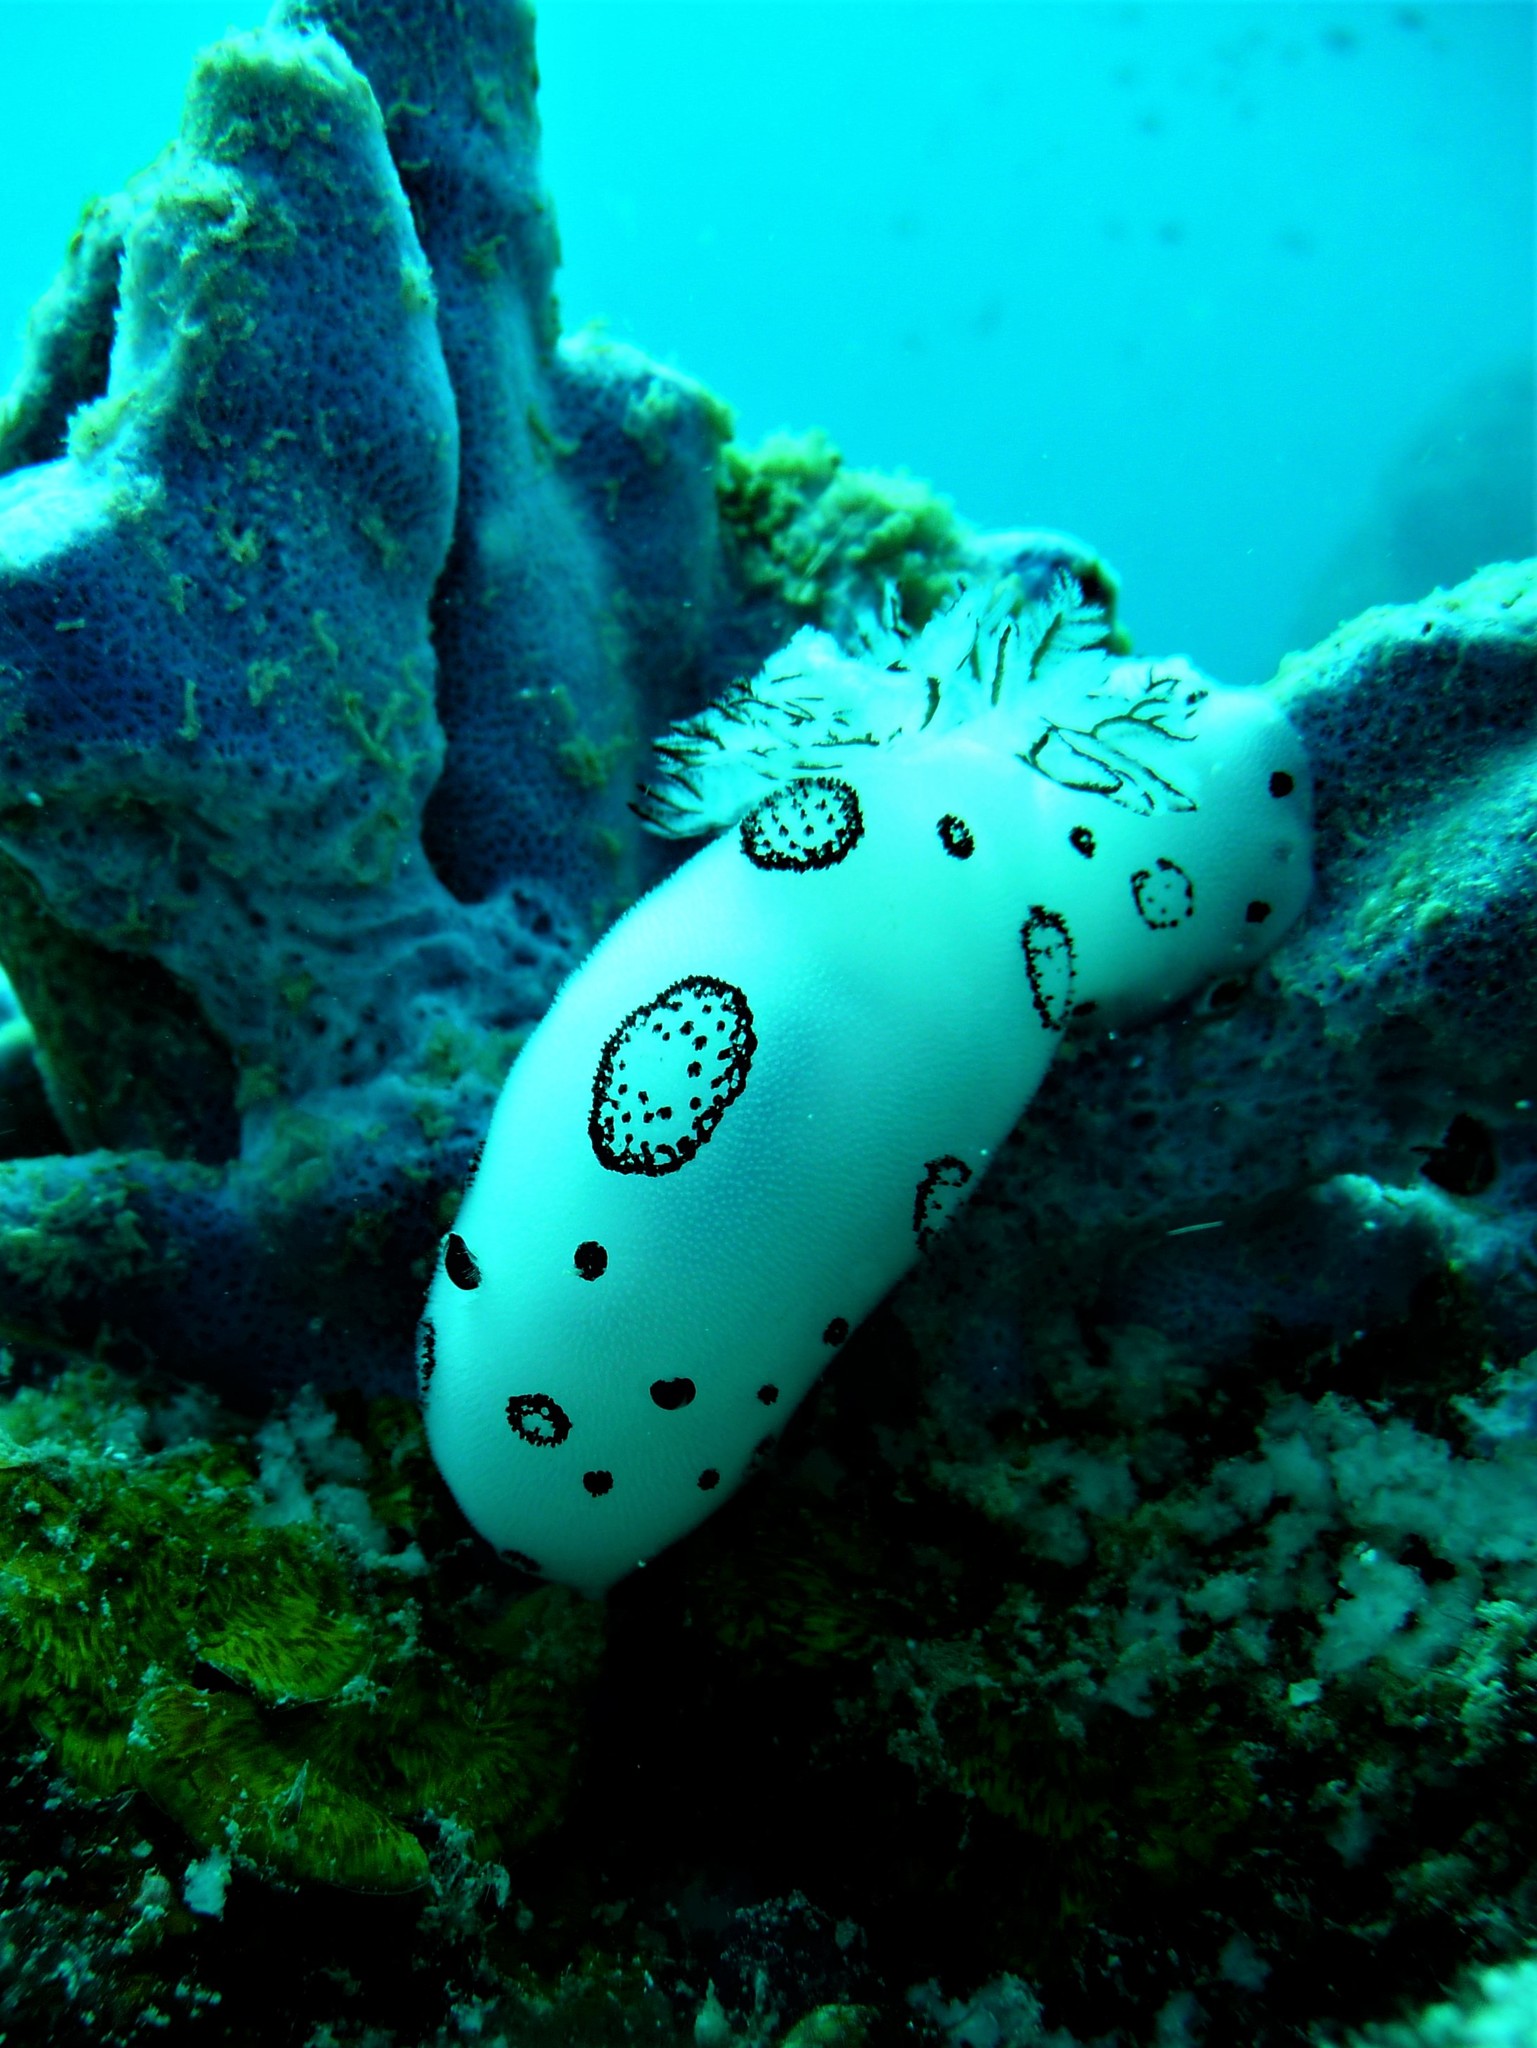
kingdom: Animalia
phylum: Mollusca
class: Gastropoda
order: Nudibranchia
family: Discodorididae
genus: Jorunna
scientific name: Jorunna funebris
